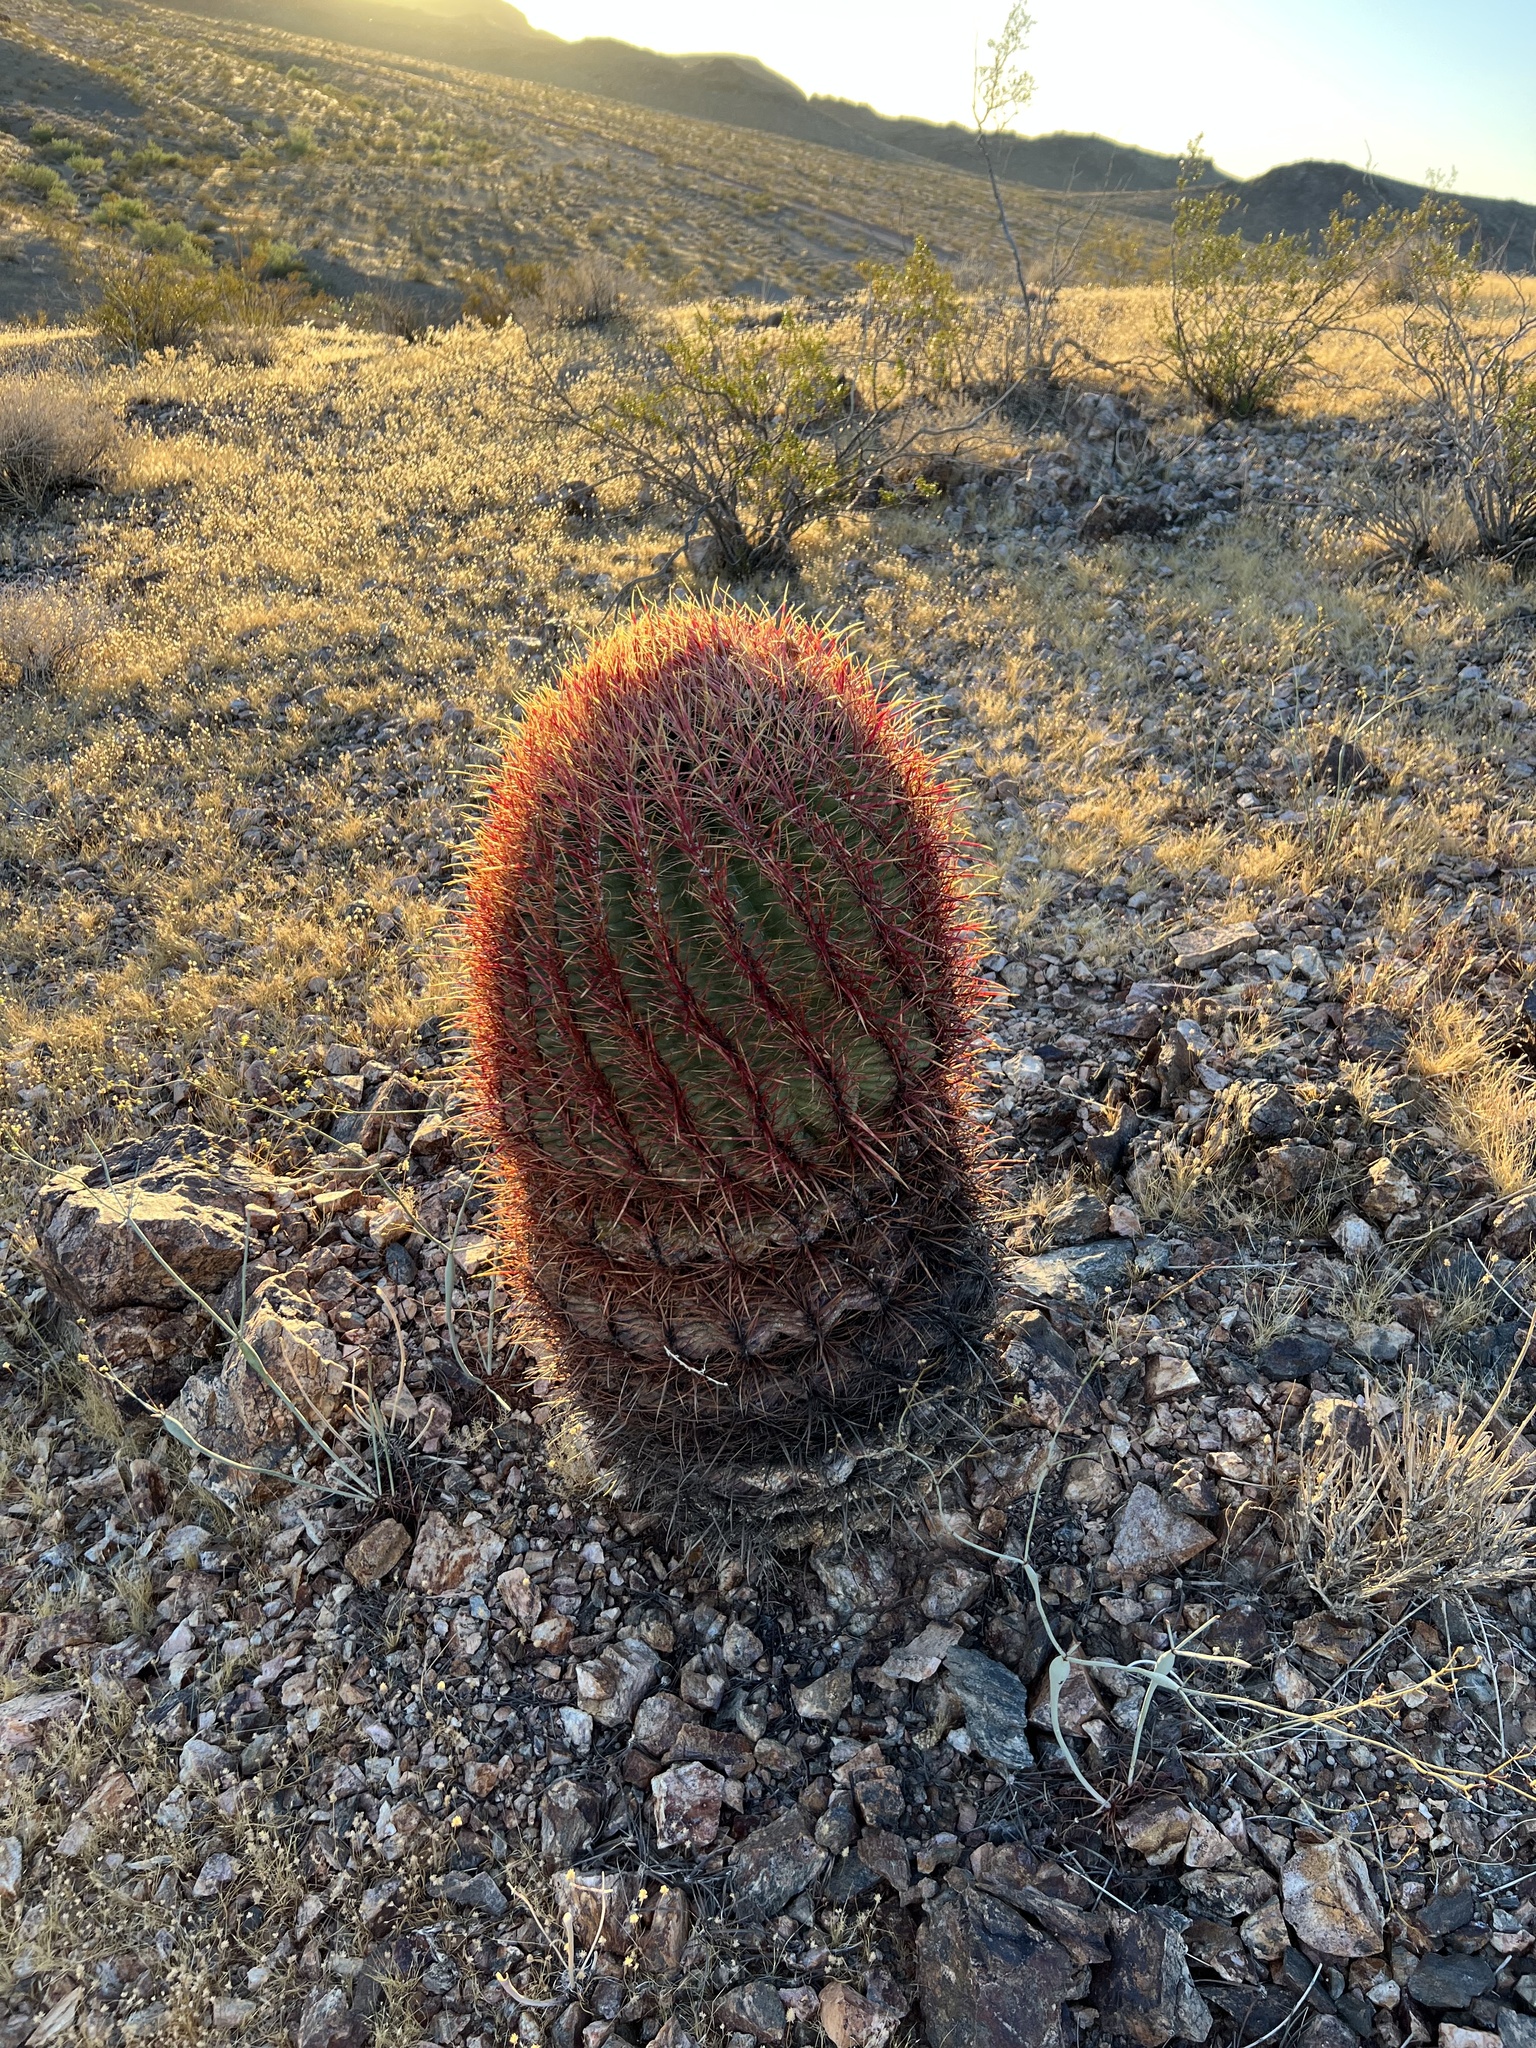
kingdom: Plantae
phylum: Tracheophyta
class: Magnoliopsida
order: Caryophyllales
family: Cactaceae
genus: Ferocactus
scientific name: Ferocactus cylindraceus
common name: California barrel cactus
